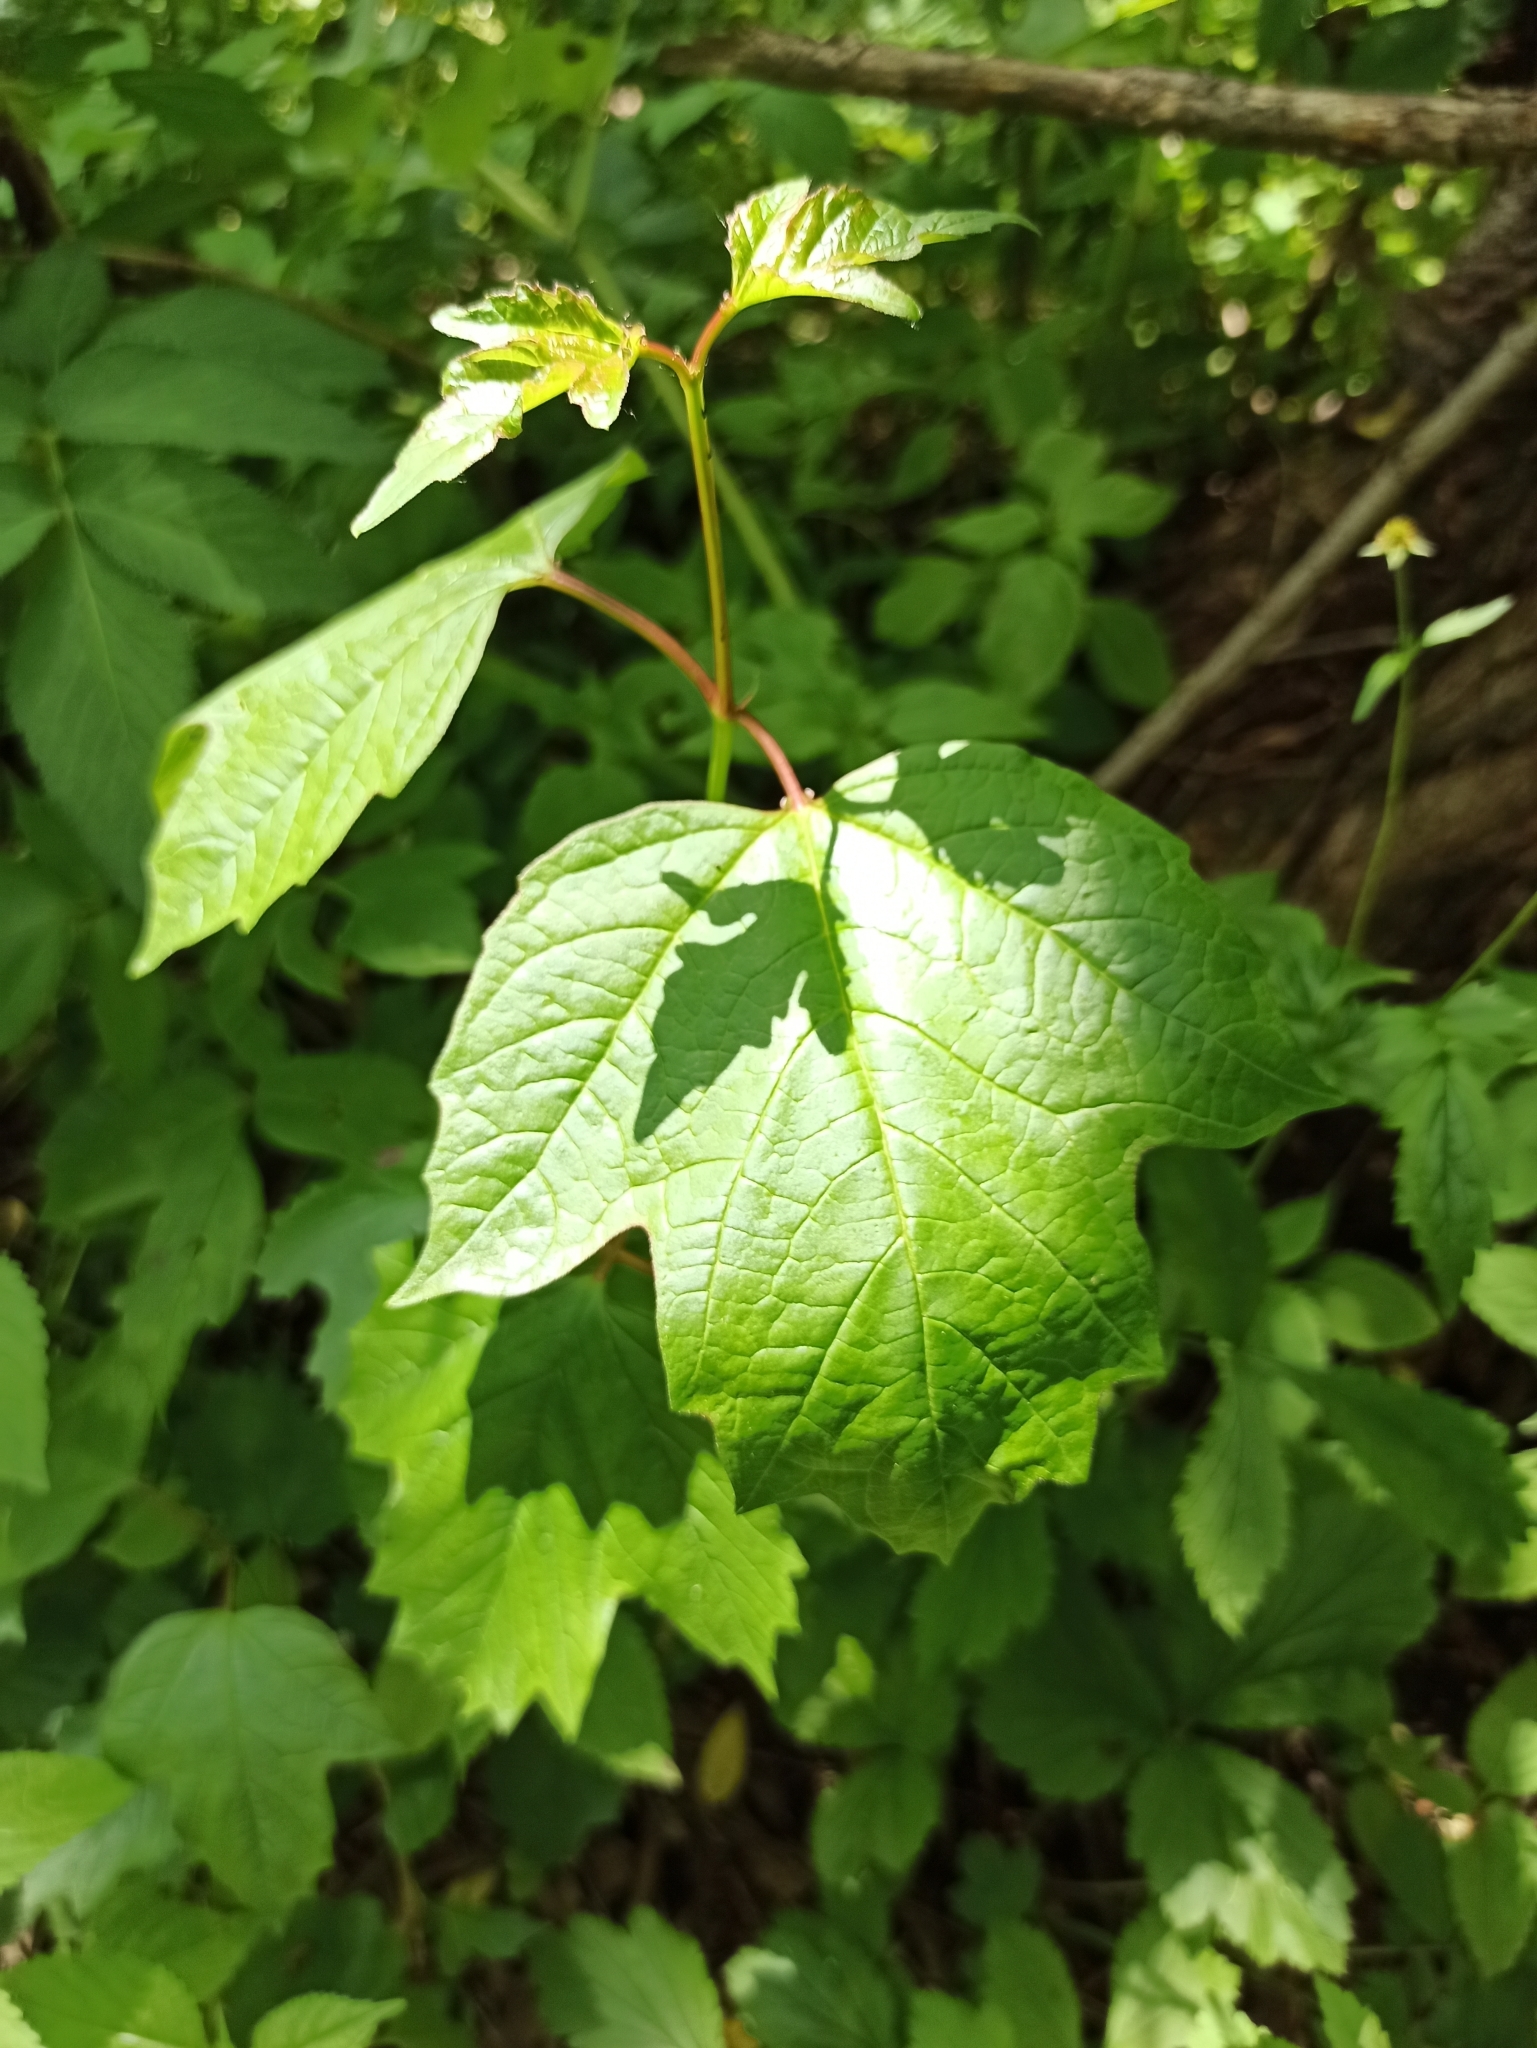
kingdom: Plantae
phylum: Tracheophyta
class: Magnoliopsida
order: Dipsacales
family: Viburnaceae
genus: Viburnum
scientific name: Viburnum opulus
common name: Guelder-rose
